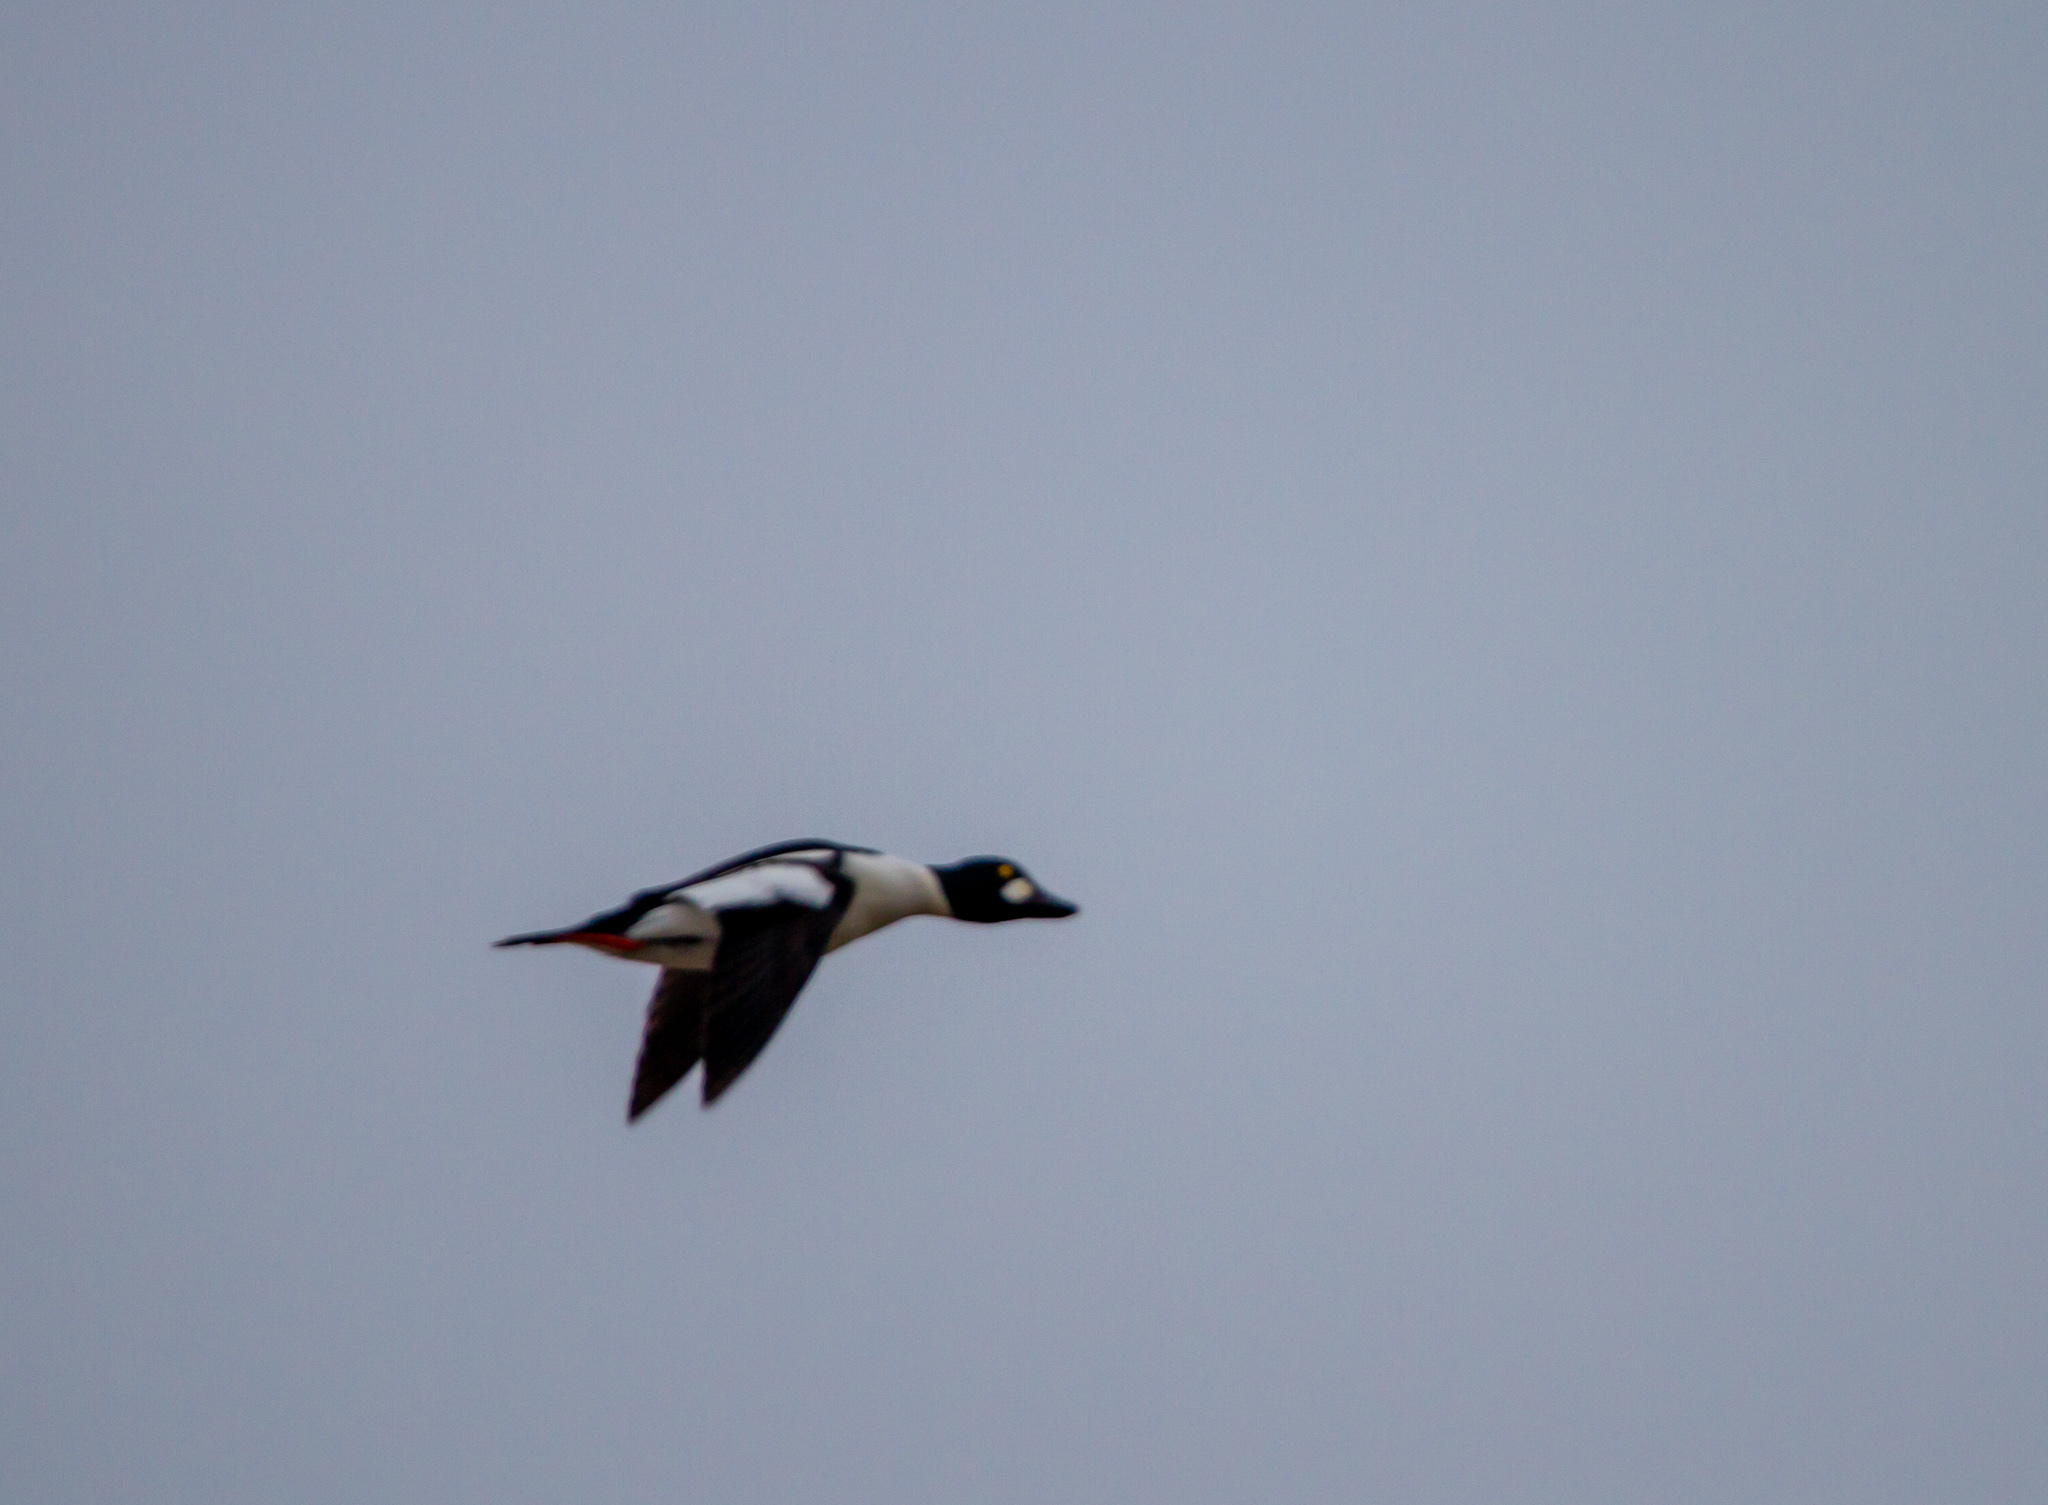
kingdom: Animalia
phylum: Chordata
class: Aves
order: Anseriformes
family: Anatidae
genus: Bucephala
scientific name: Bucephala clangula
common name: Common goldeneye
